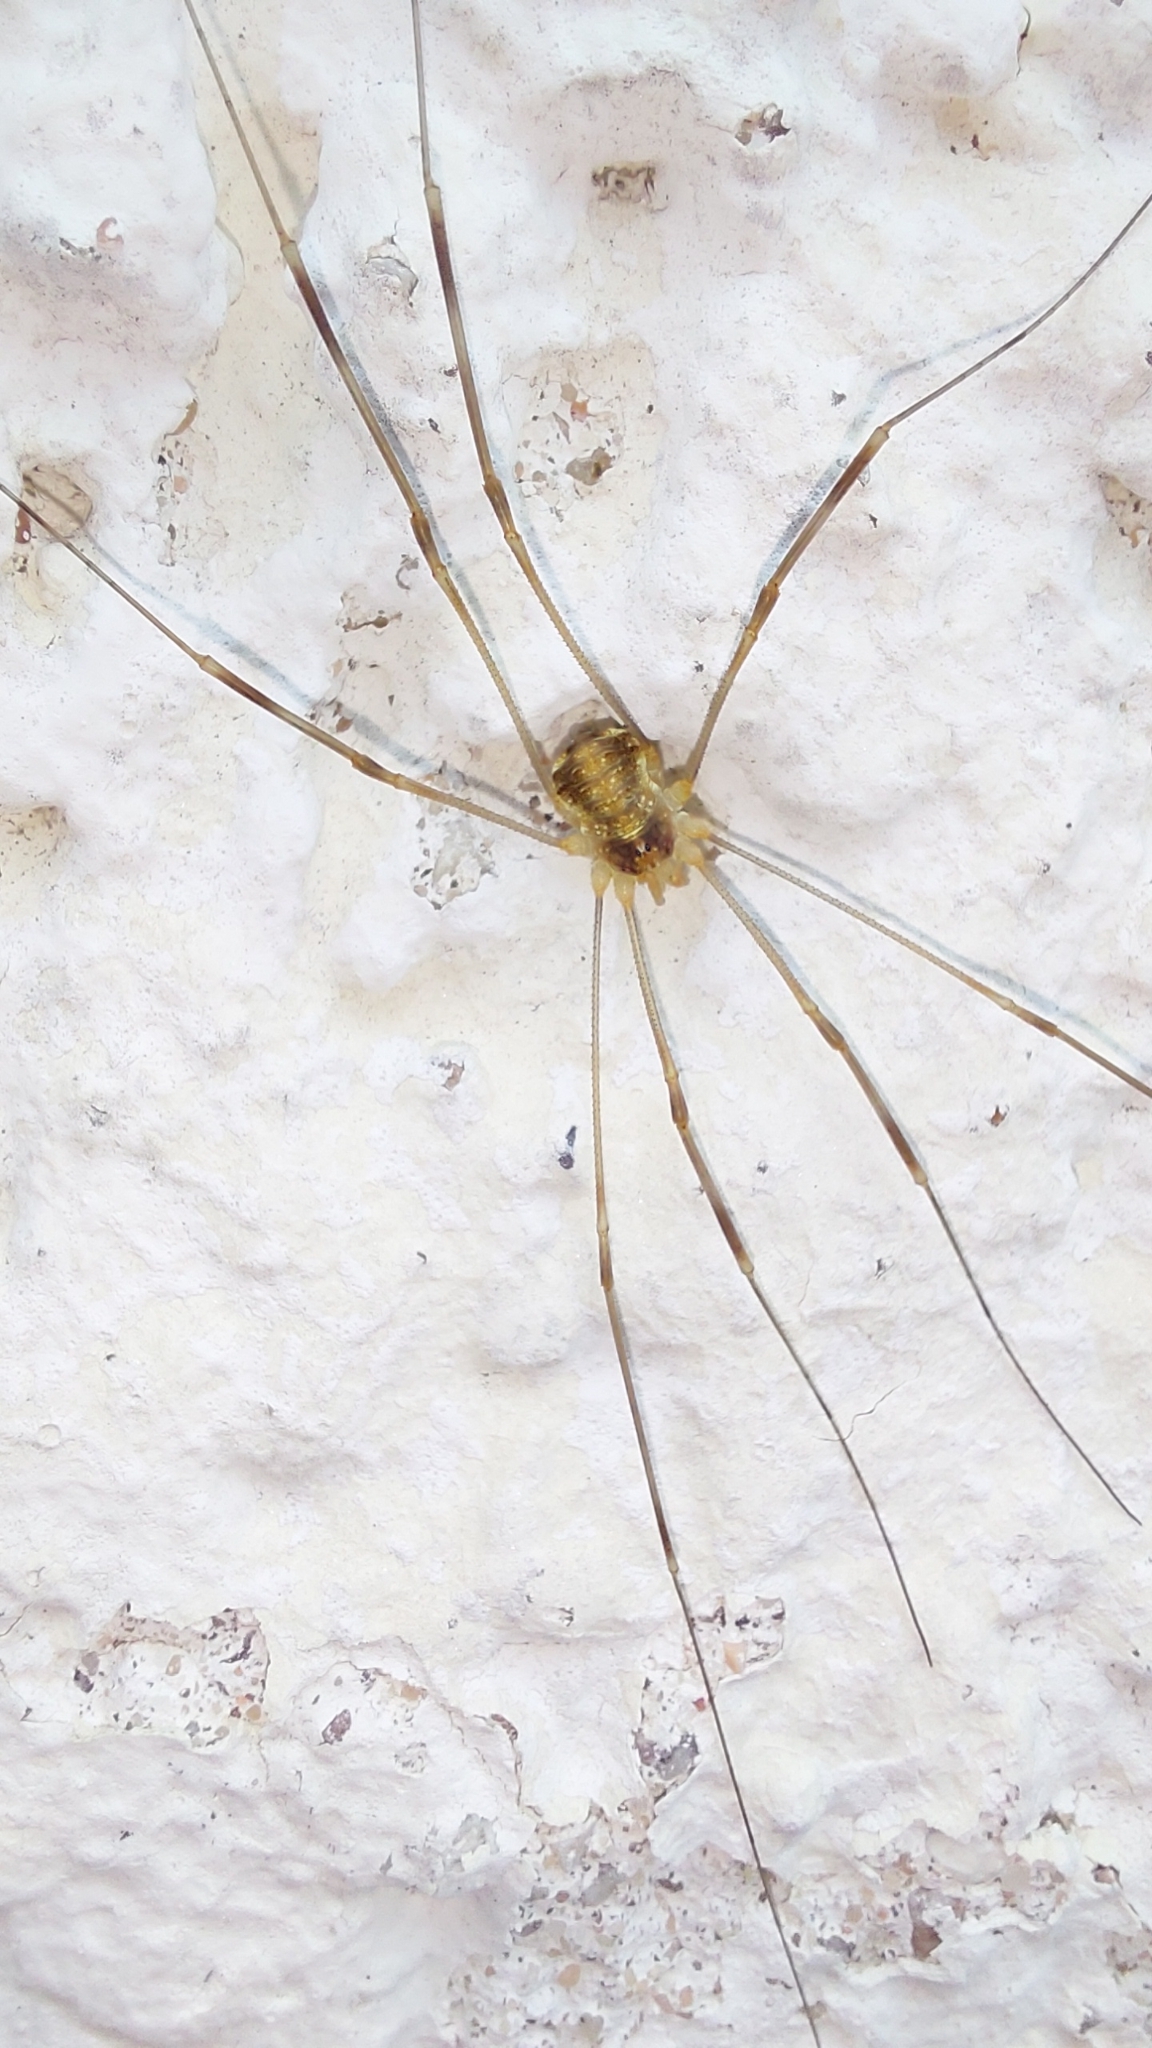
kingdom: Animalia
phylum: Arthropoda
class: Arachnida
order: Opiliones
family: Phalangiidae
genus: Opilio
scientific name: Opilio canestrinii
